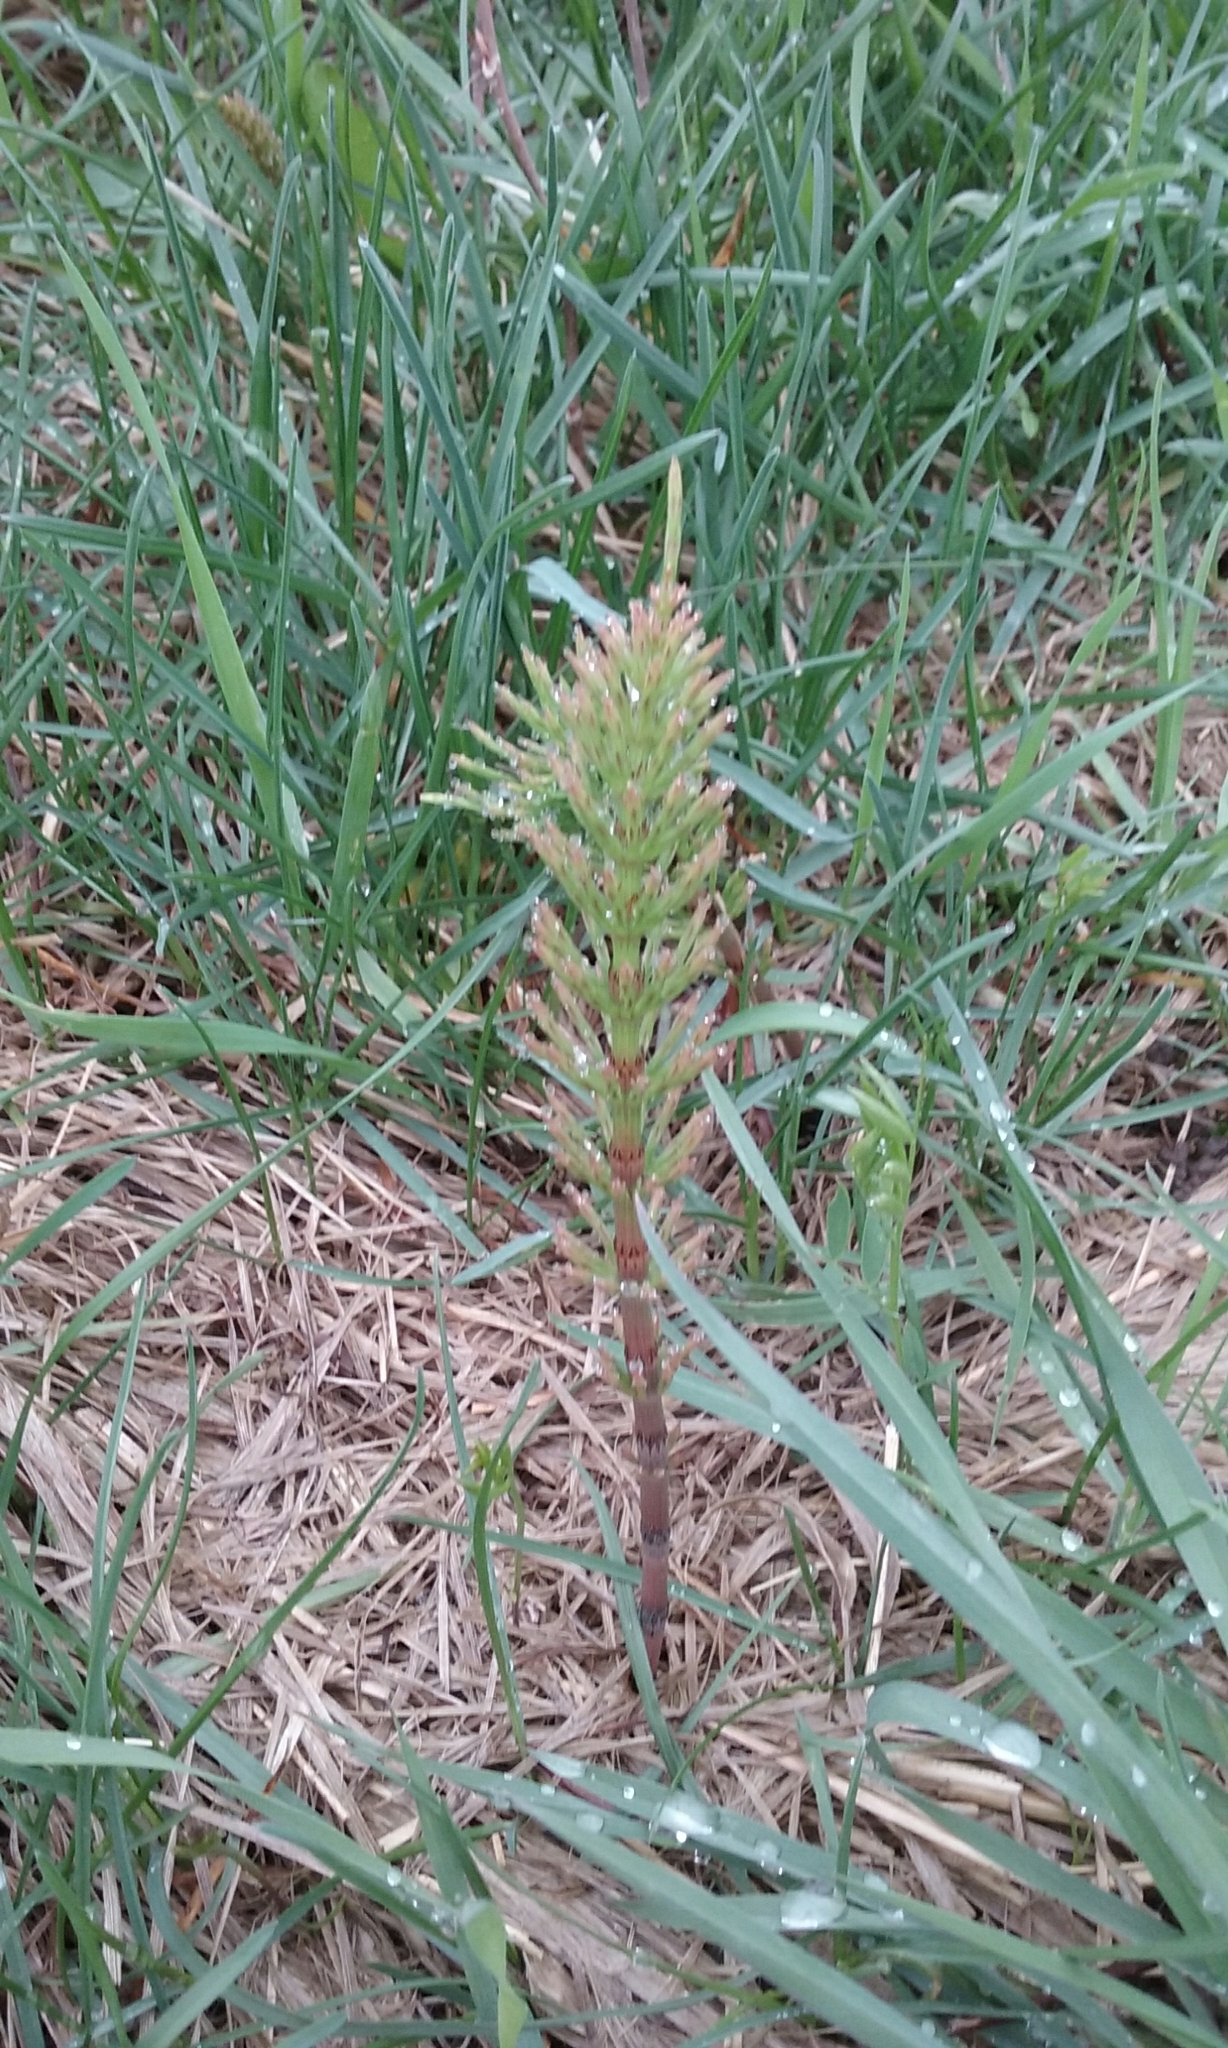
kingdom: Plantae
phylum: Tracheophyta
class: Polypodiopsida
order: Equisetales
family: Equisetaceae
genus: Equisetum
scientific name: Equisetum
